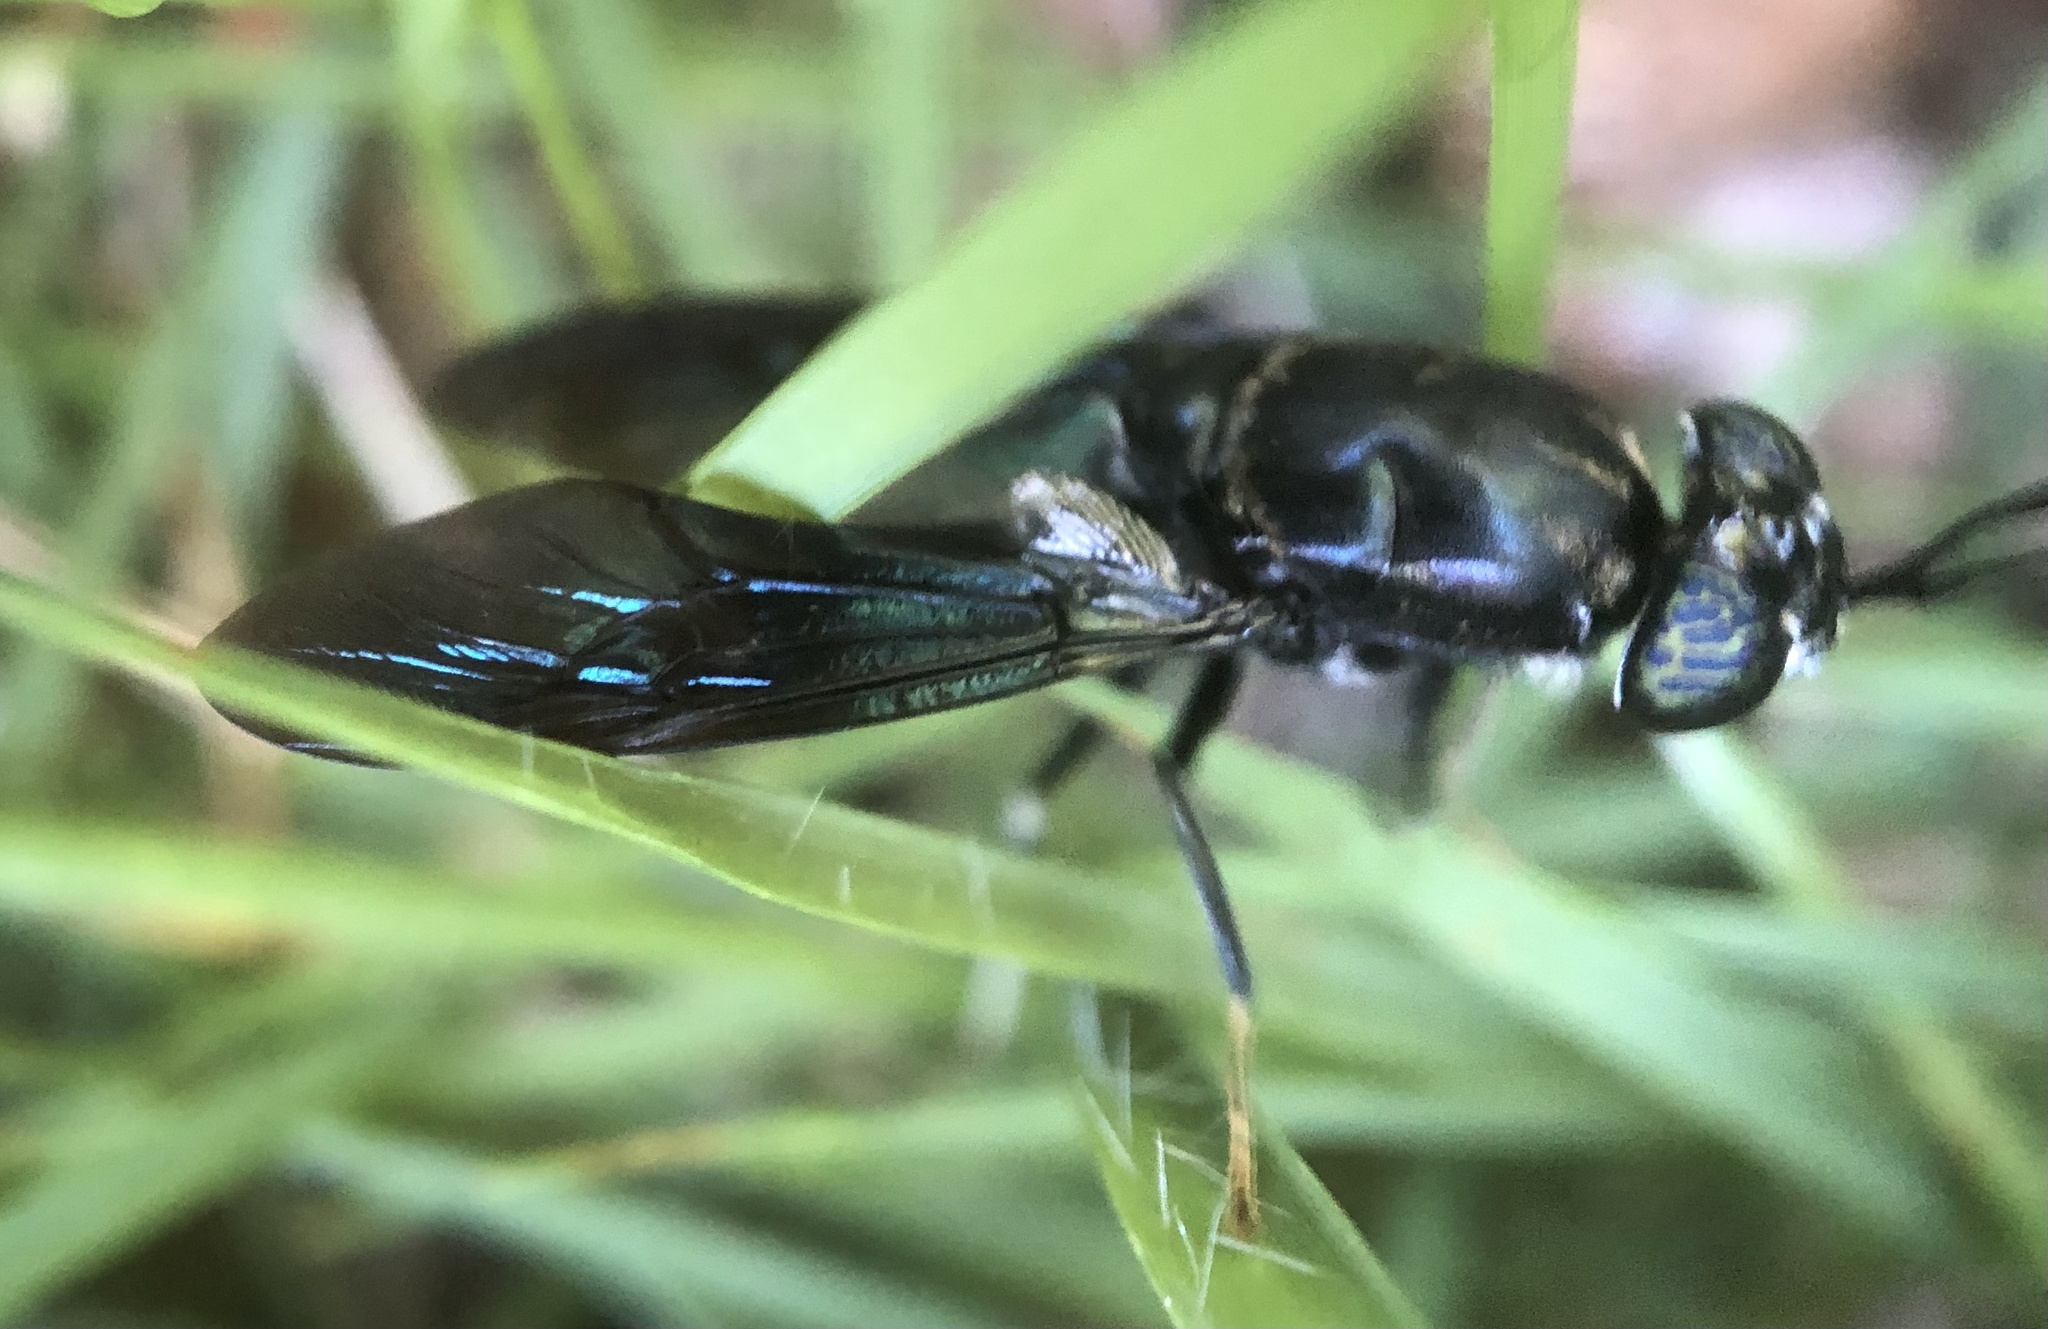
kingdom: Animalia
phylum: Arthropoda
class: Insecta
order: Diptera
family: Stratiomyidae
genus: Hermetia
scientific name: Hermetia illucens
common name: Black soldier fly
